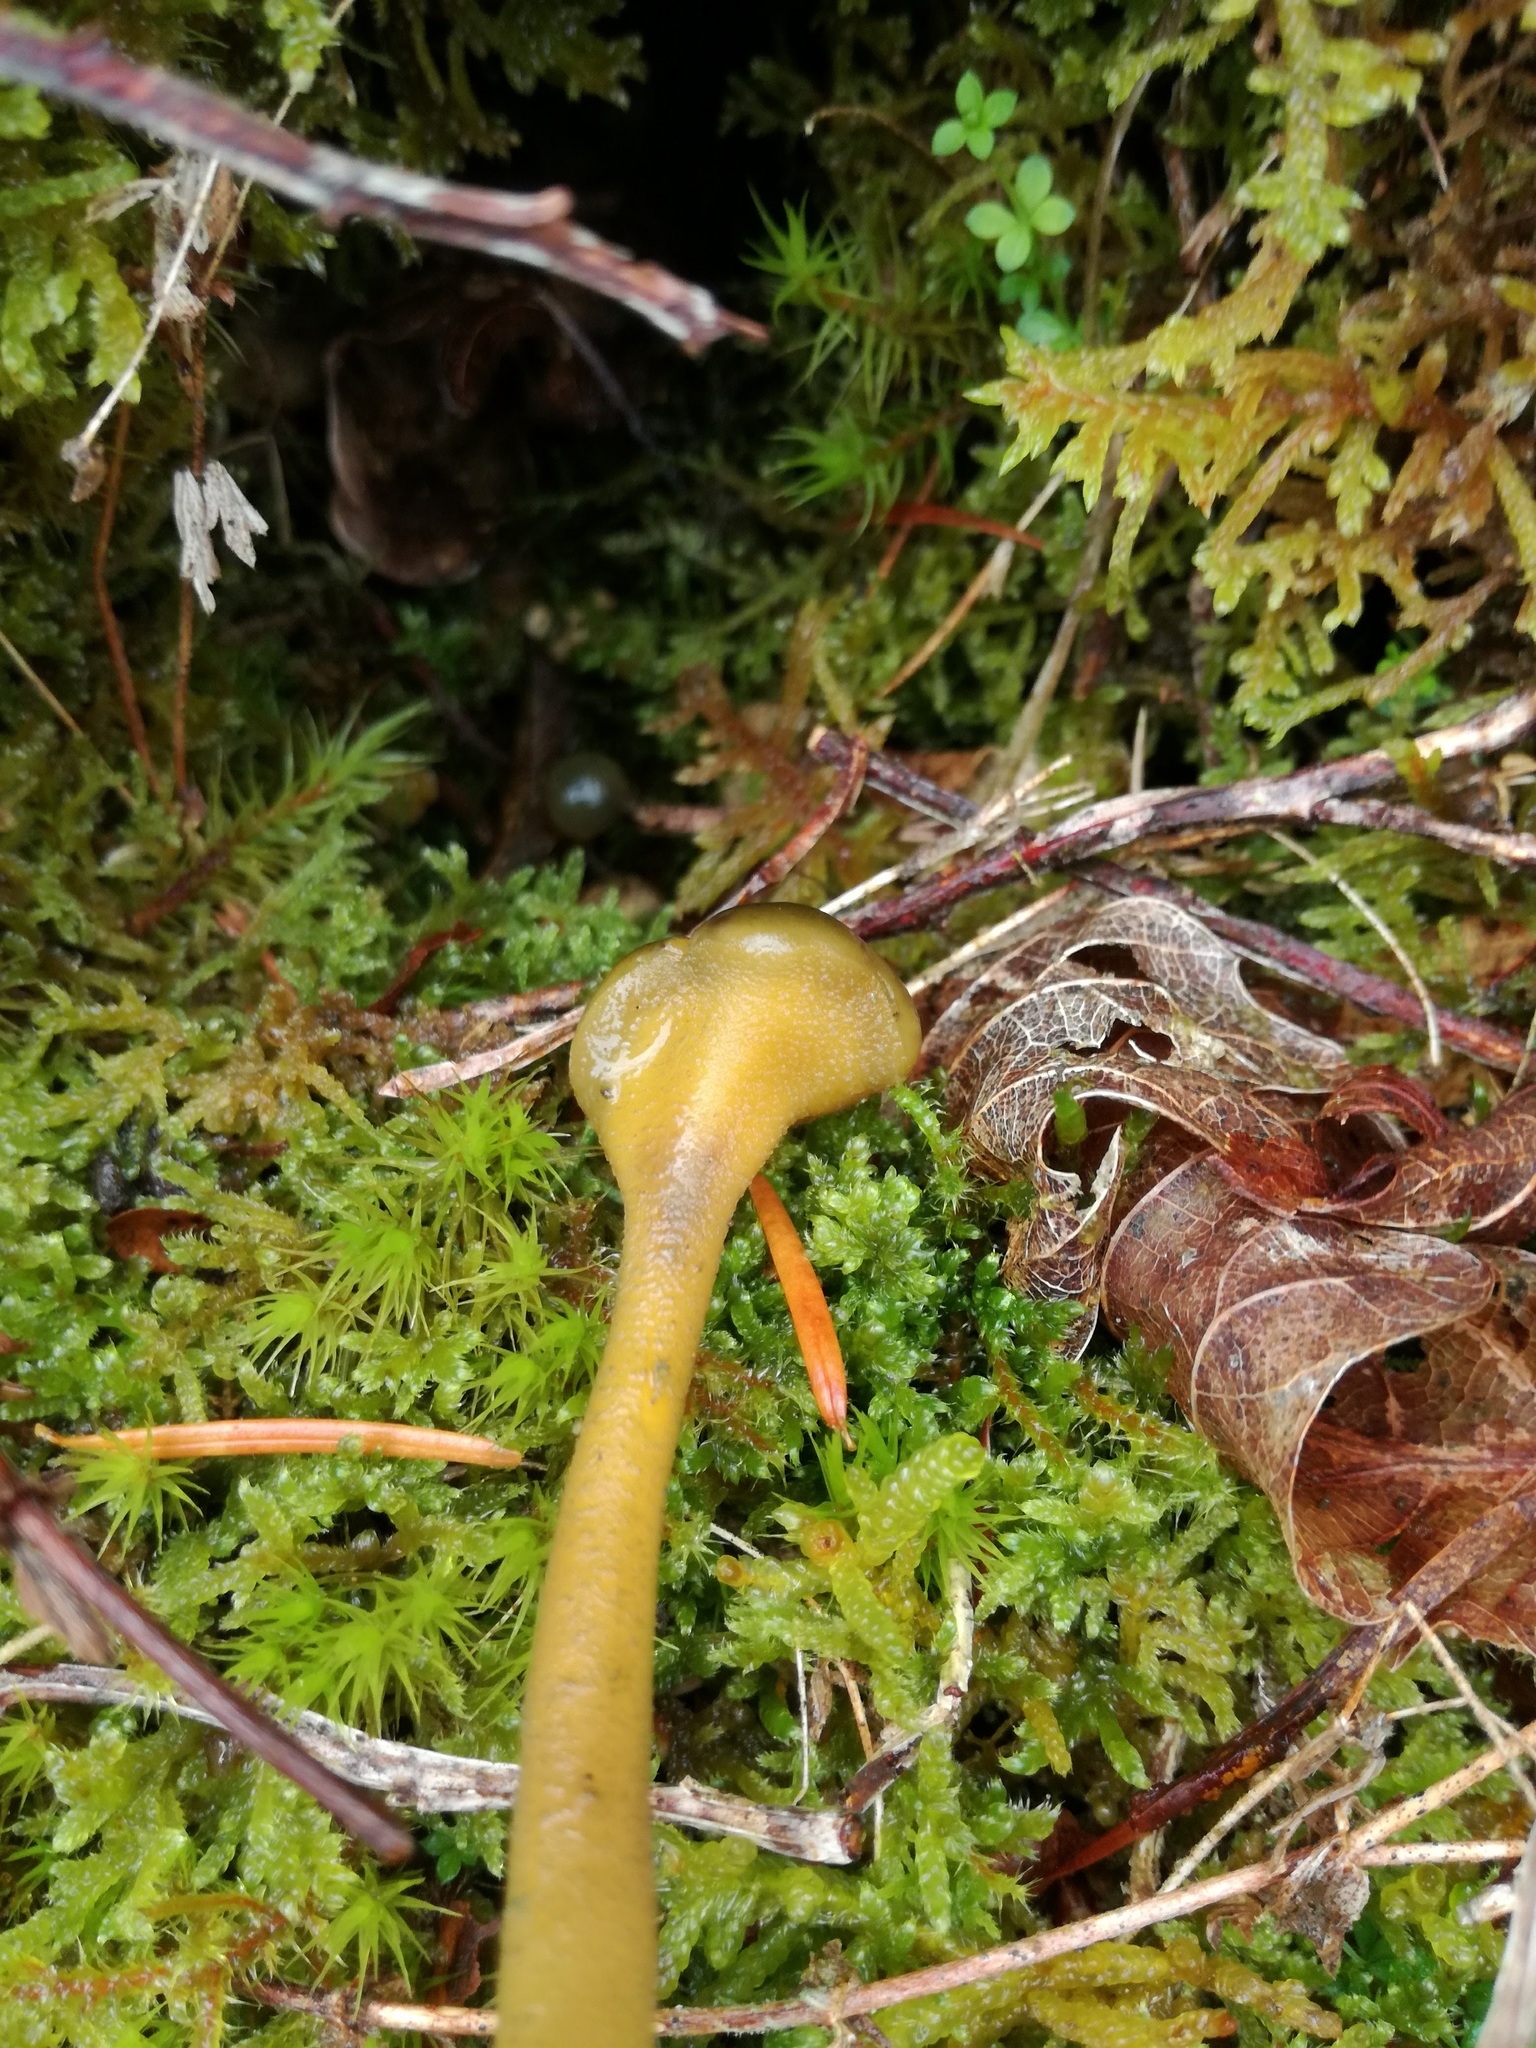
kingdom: Fungi
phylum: Ascomycota
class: Leotiomycetes
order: Leotiales
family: Leotiaceae
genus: Leotia
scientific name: Leotia lubrica
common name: Jellybaby
